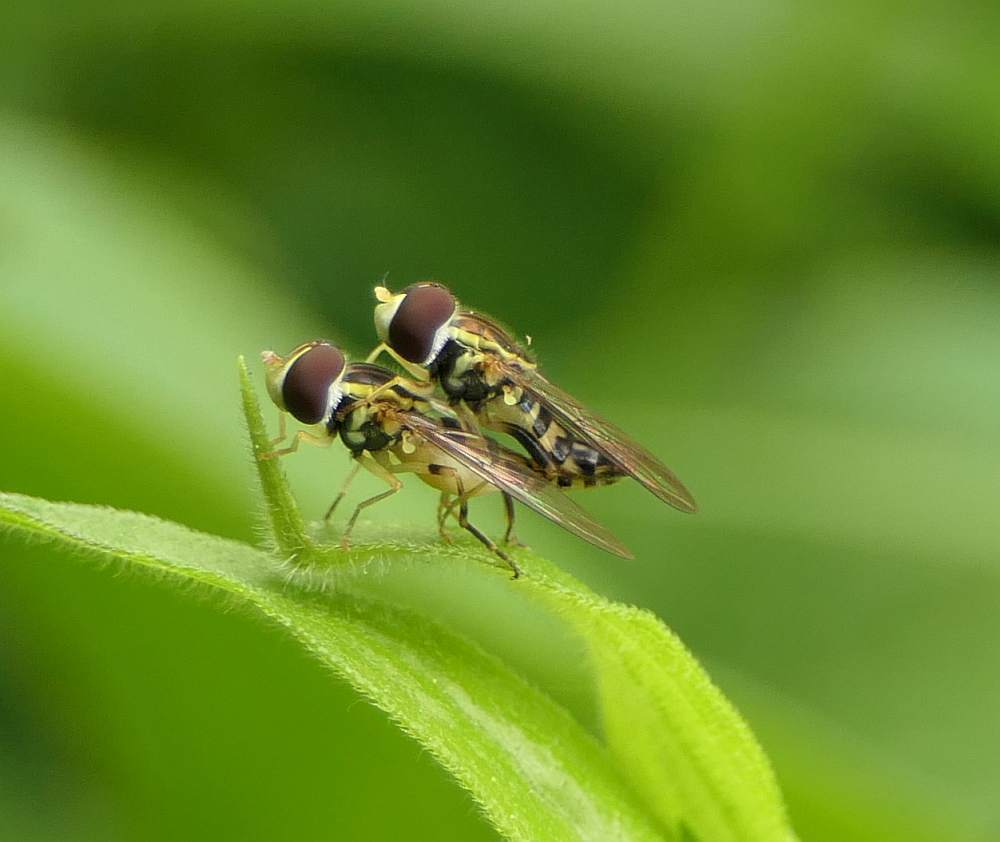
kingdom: Animalia
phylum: Arthropoda
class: Insecta
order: Diptera
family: Syrphidae
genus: Toxomerus
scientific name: Toxomerus geminatus
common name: Eastern calligrapher
